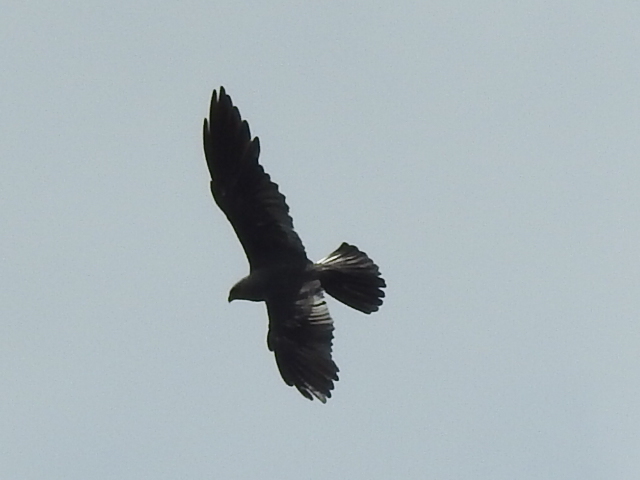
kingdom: Animalia
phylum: Chordata
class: Aves
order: Accipitriformes
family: Accipitridae
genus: Ictinia
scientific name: Ictinia mississippiensis
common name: Mississippi kite
